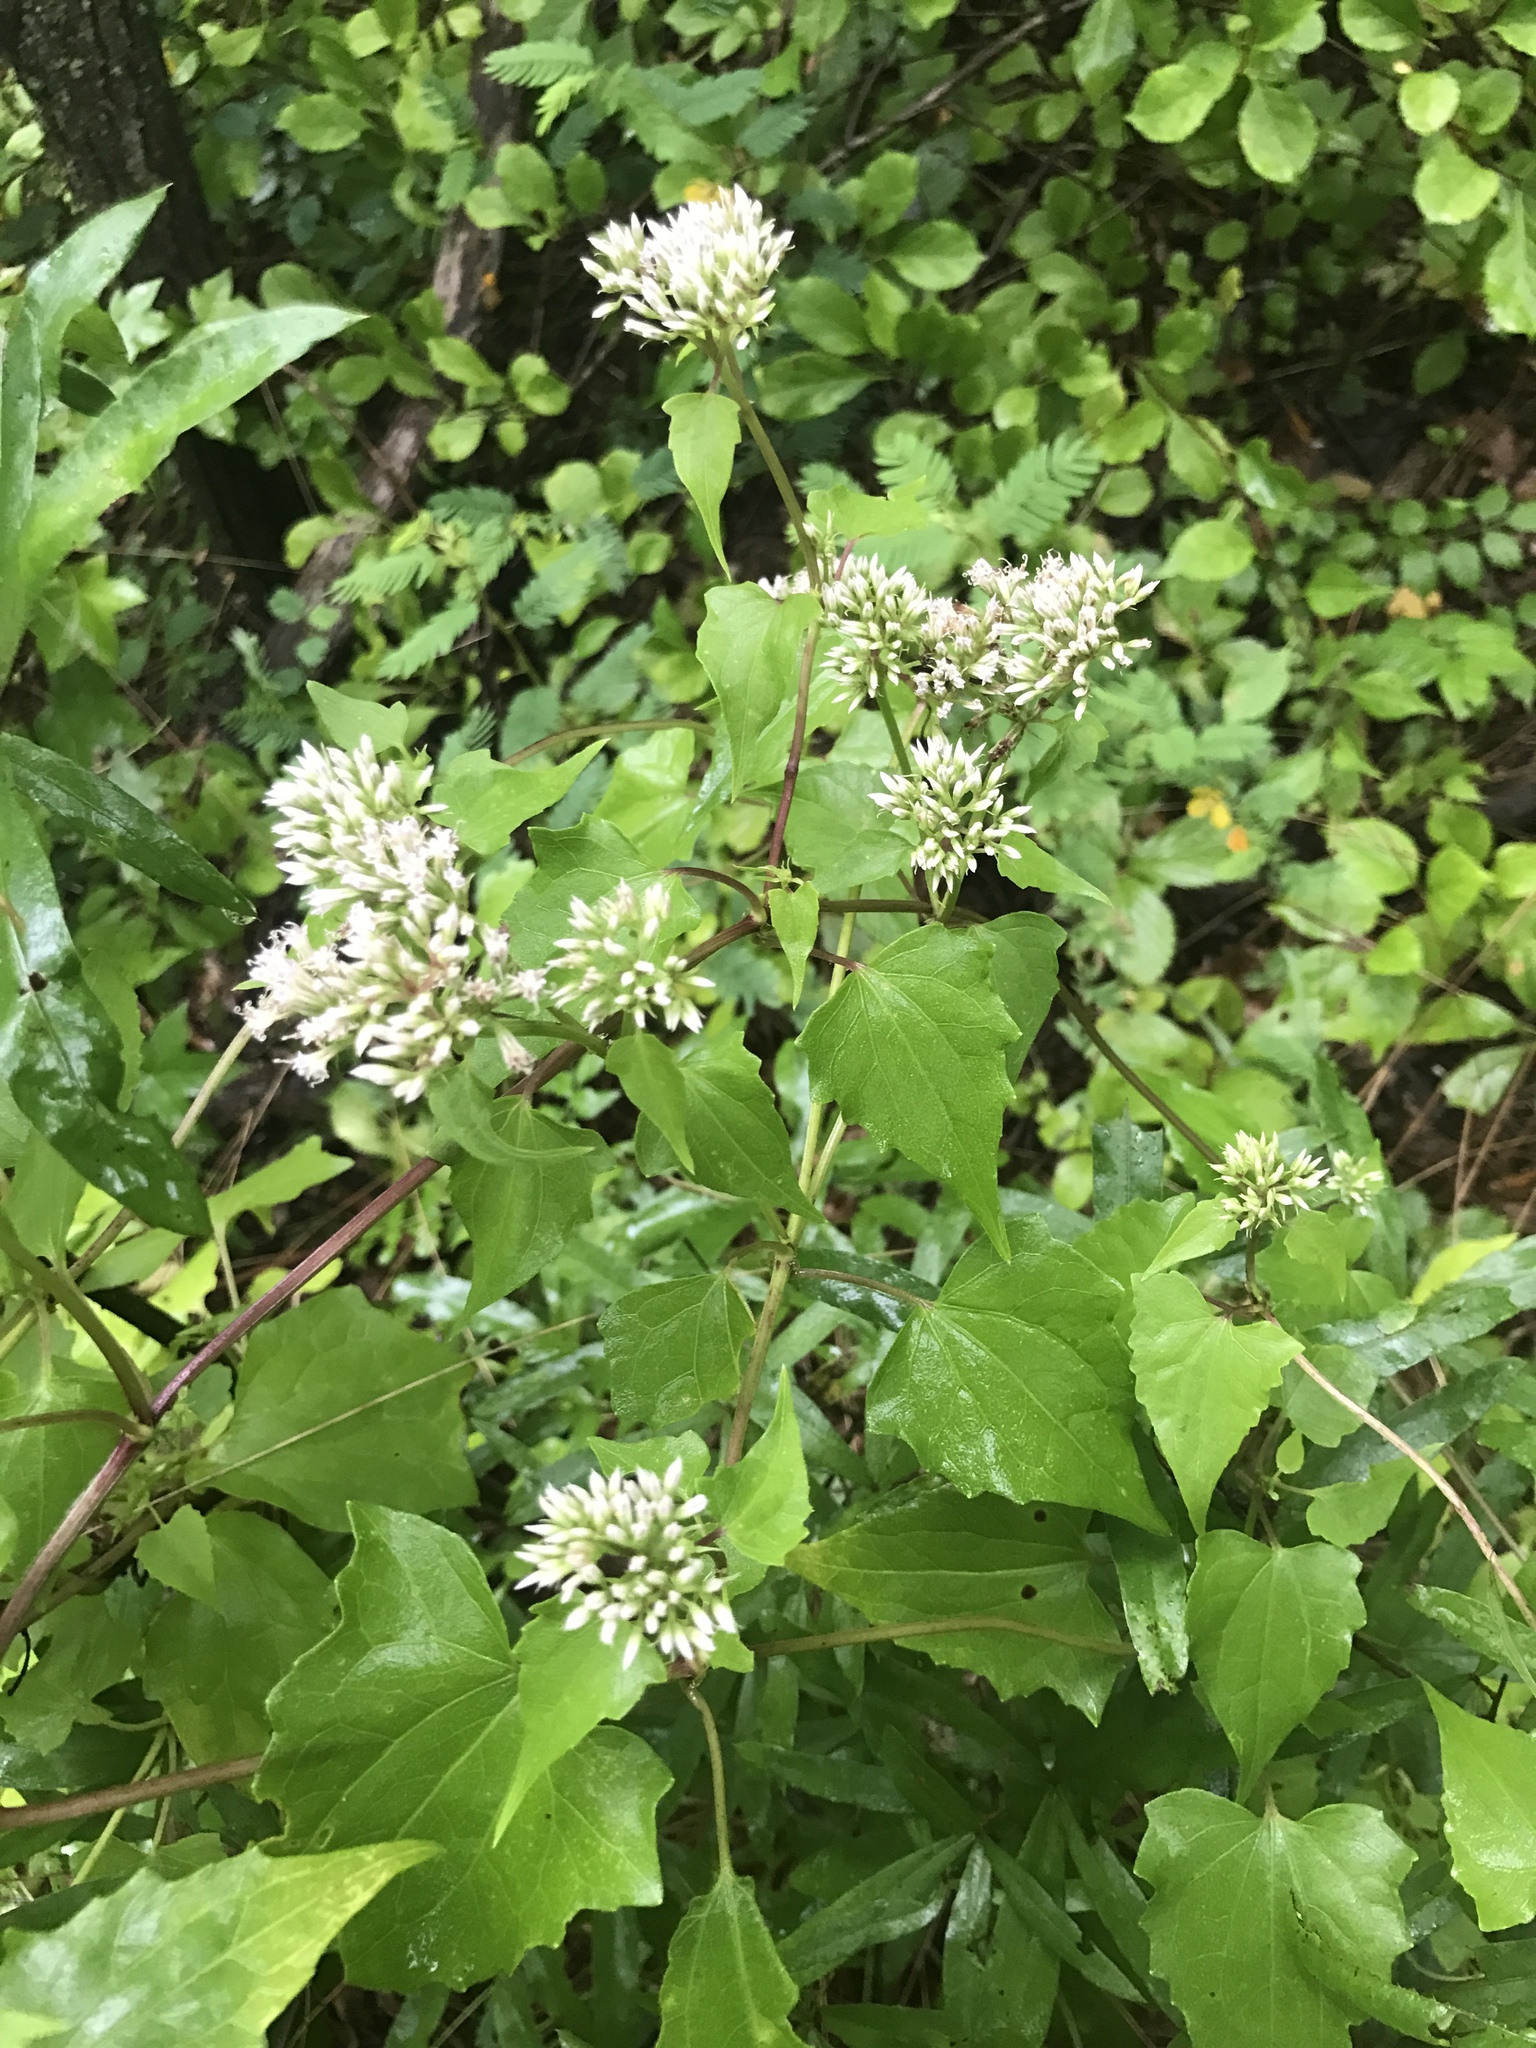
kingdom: Plantae
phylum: Tracheophyta
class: Magnoliopsida
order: Asterales
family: Asteraceae
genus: Mikania
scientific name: Mikania scandens
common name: Climbing hempvine
